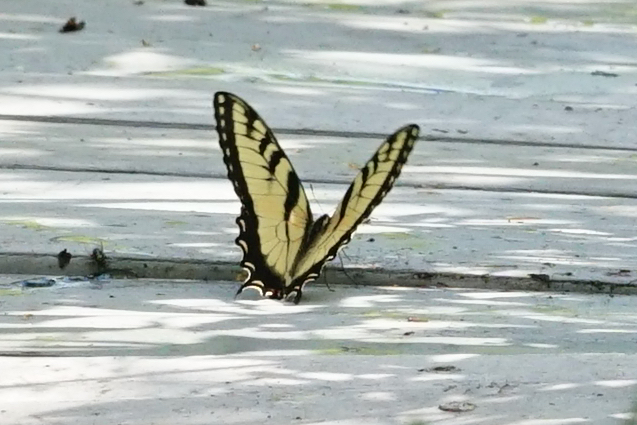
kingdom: Animalia
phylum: Arthropoda
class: Insecta
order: Lepidoptera
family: Papilionidae
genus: Papilio
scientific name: Papilio glaucus
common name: Tiger swallowtail
